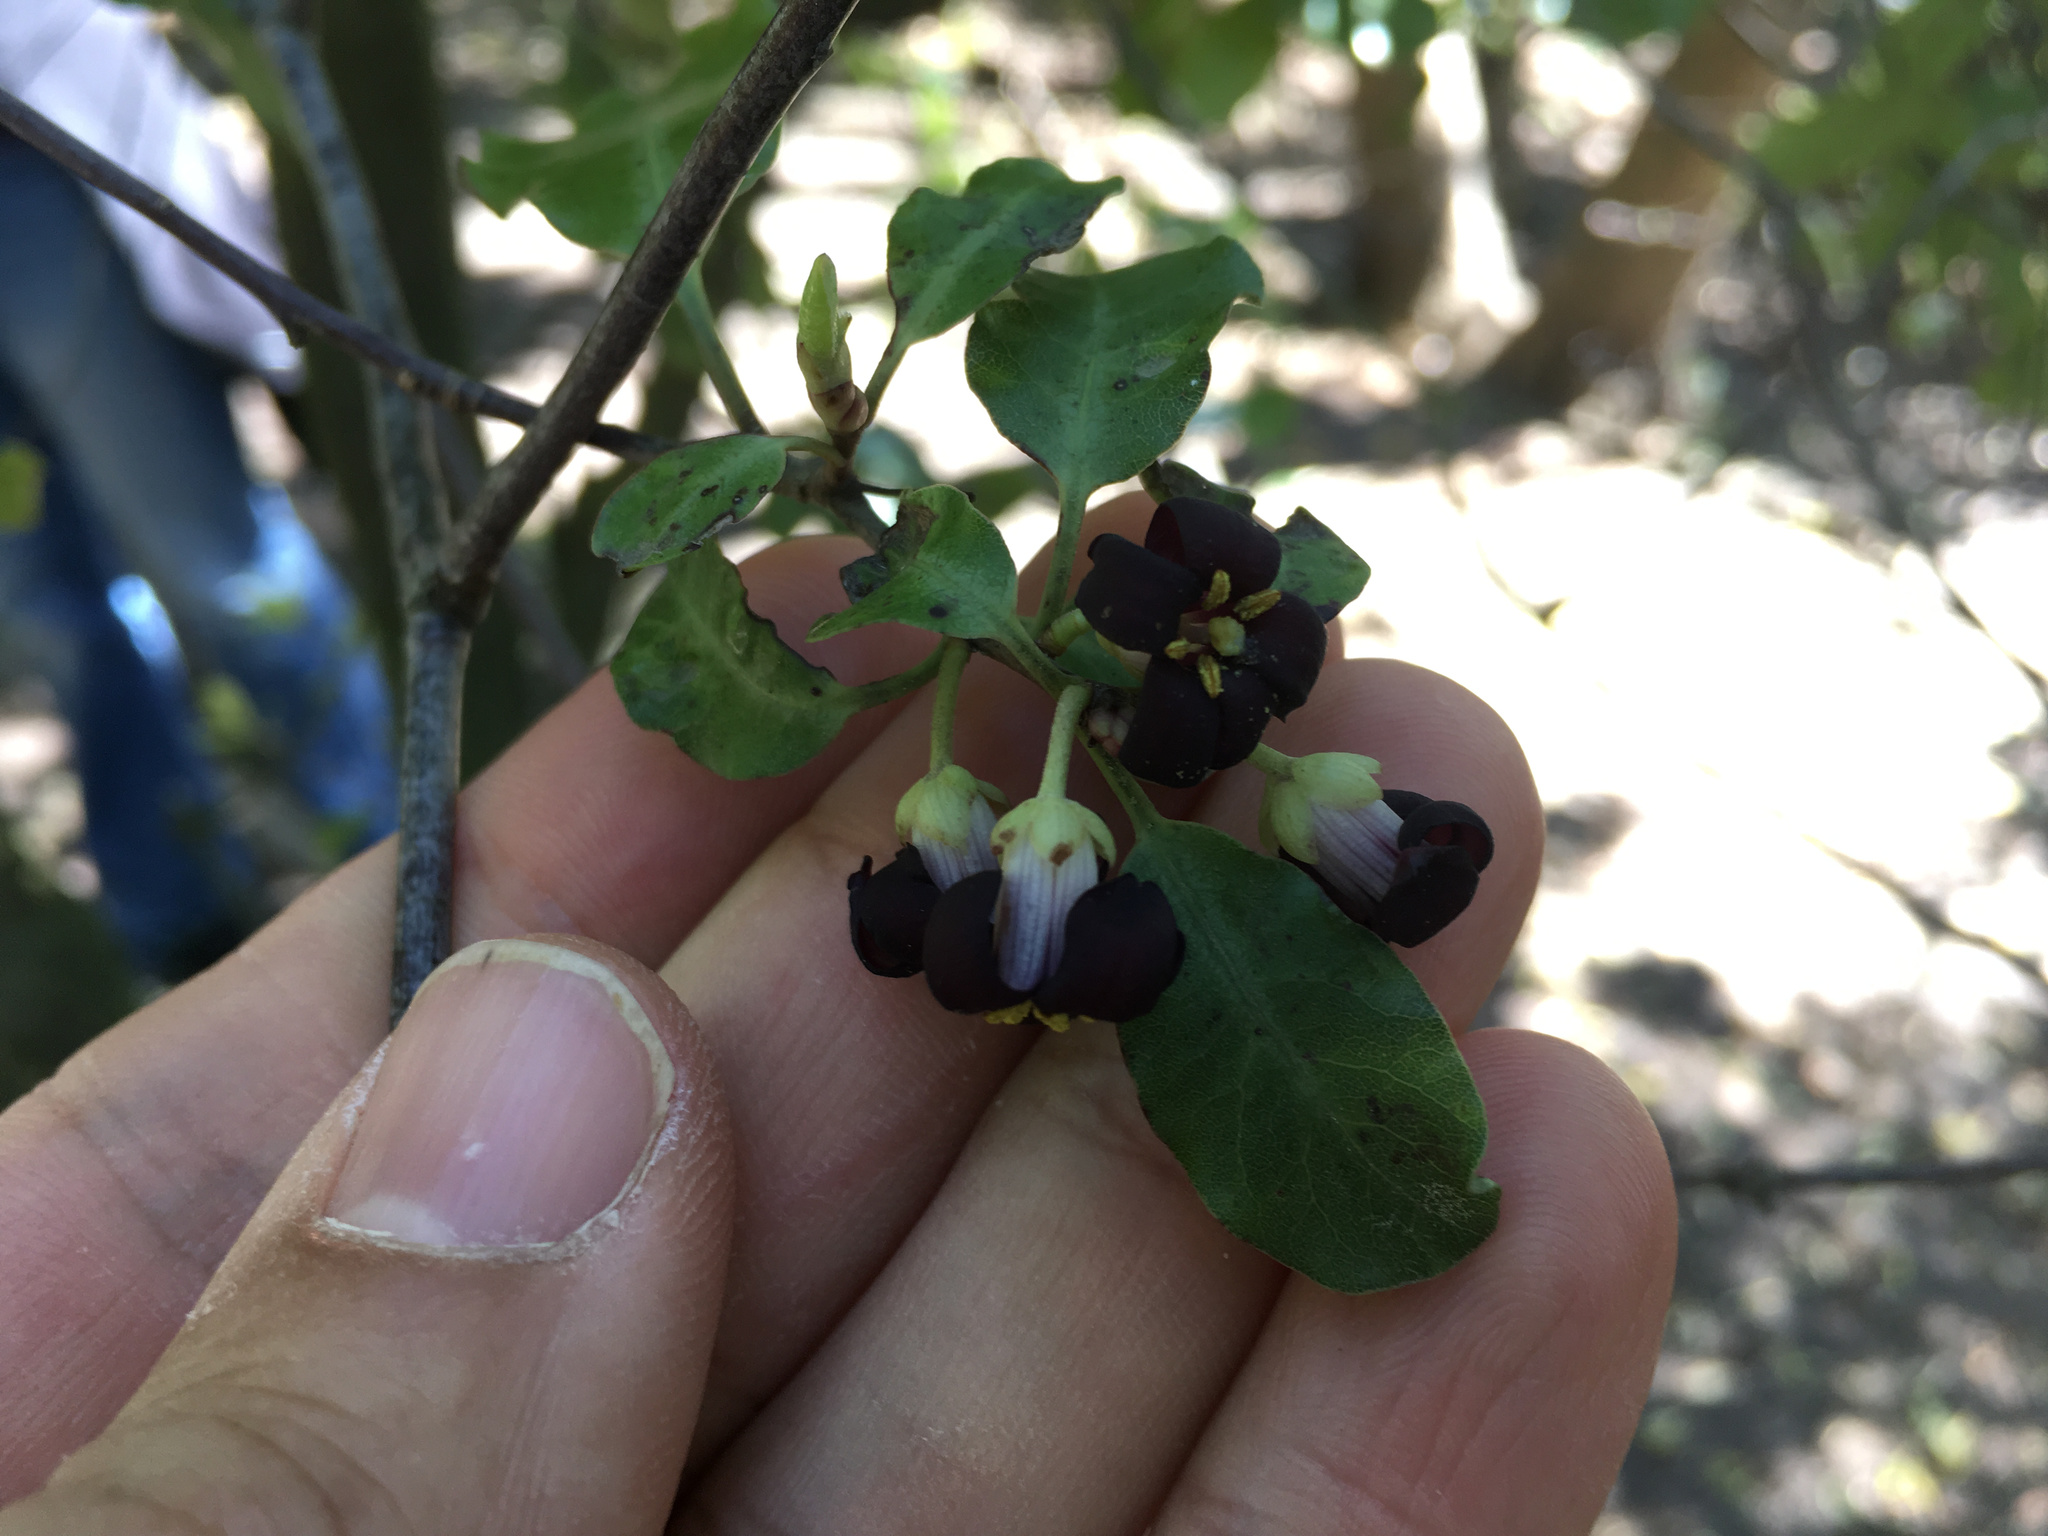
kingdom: Plantae
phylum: Tracheophyta
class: Magnoliopsida
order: Apiales
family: Pittosporaceae
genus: Pittosporum
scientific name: Pittosporum tenuifolium
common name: Kohuhu
